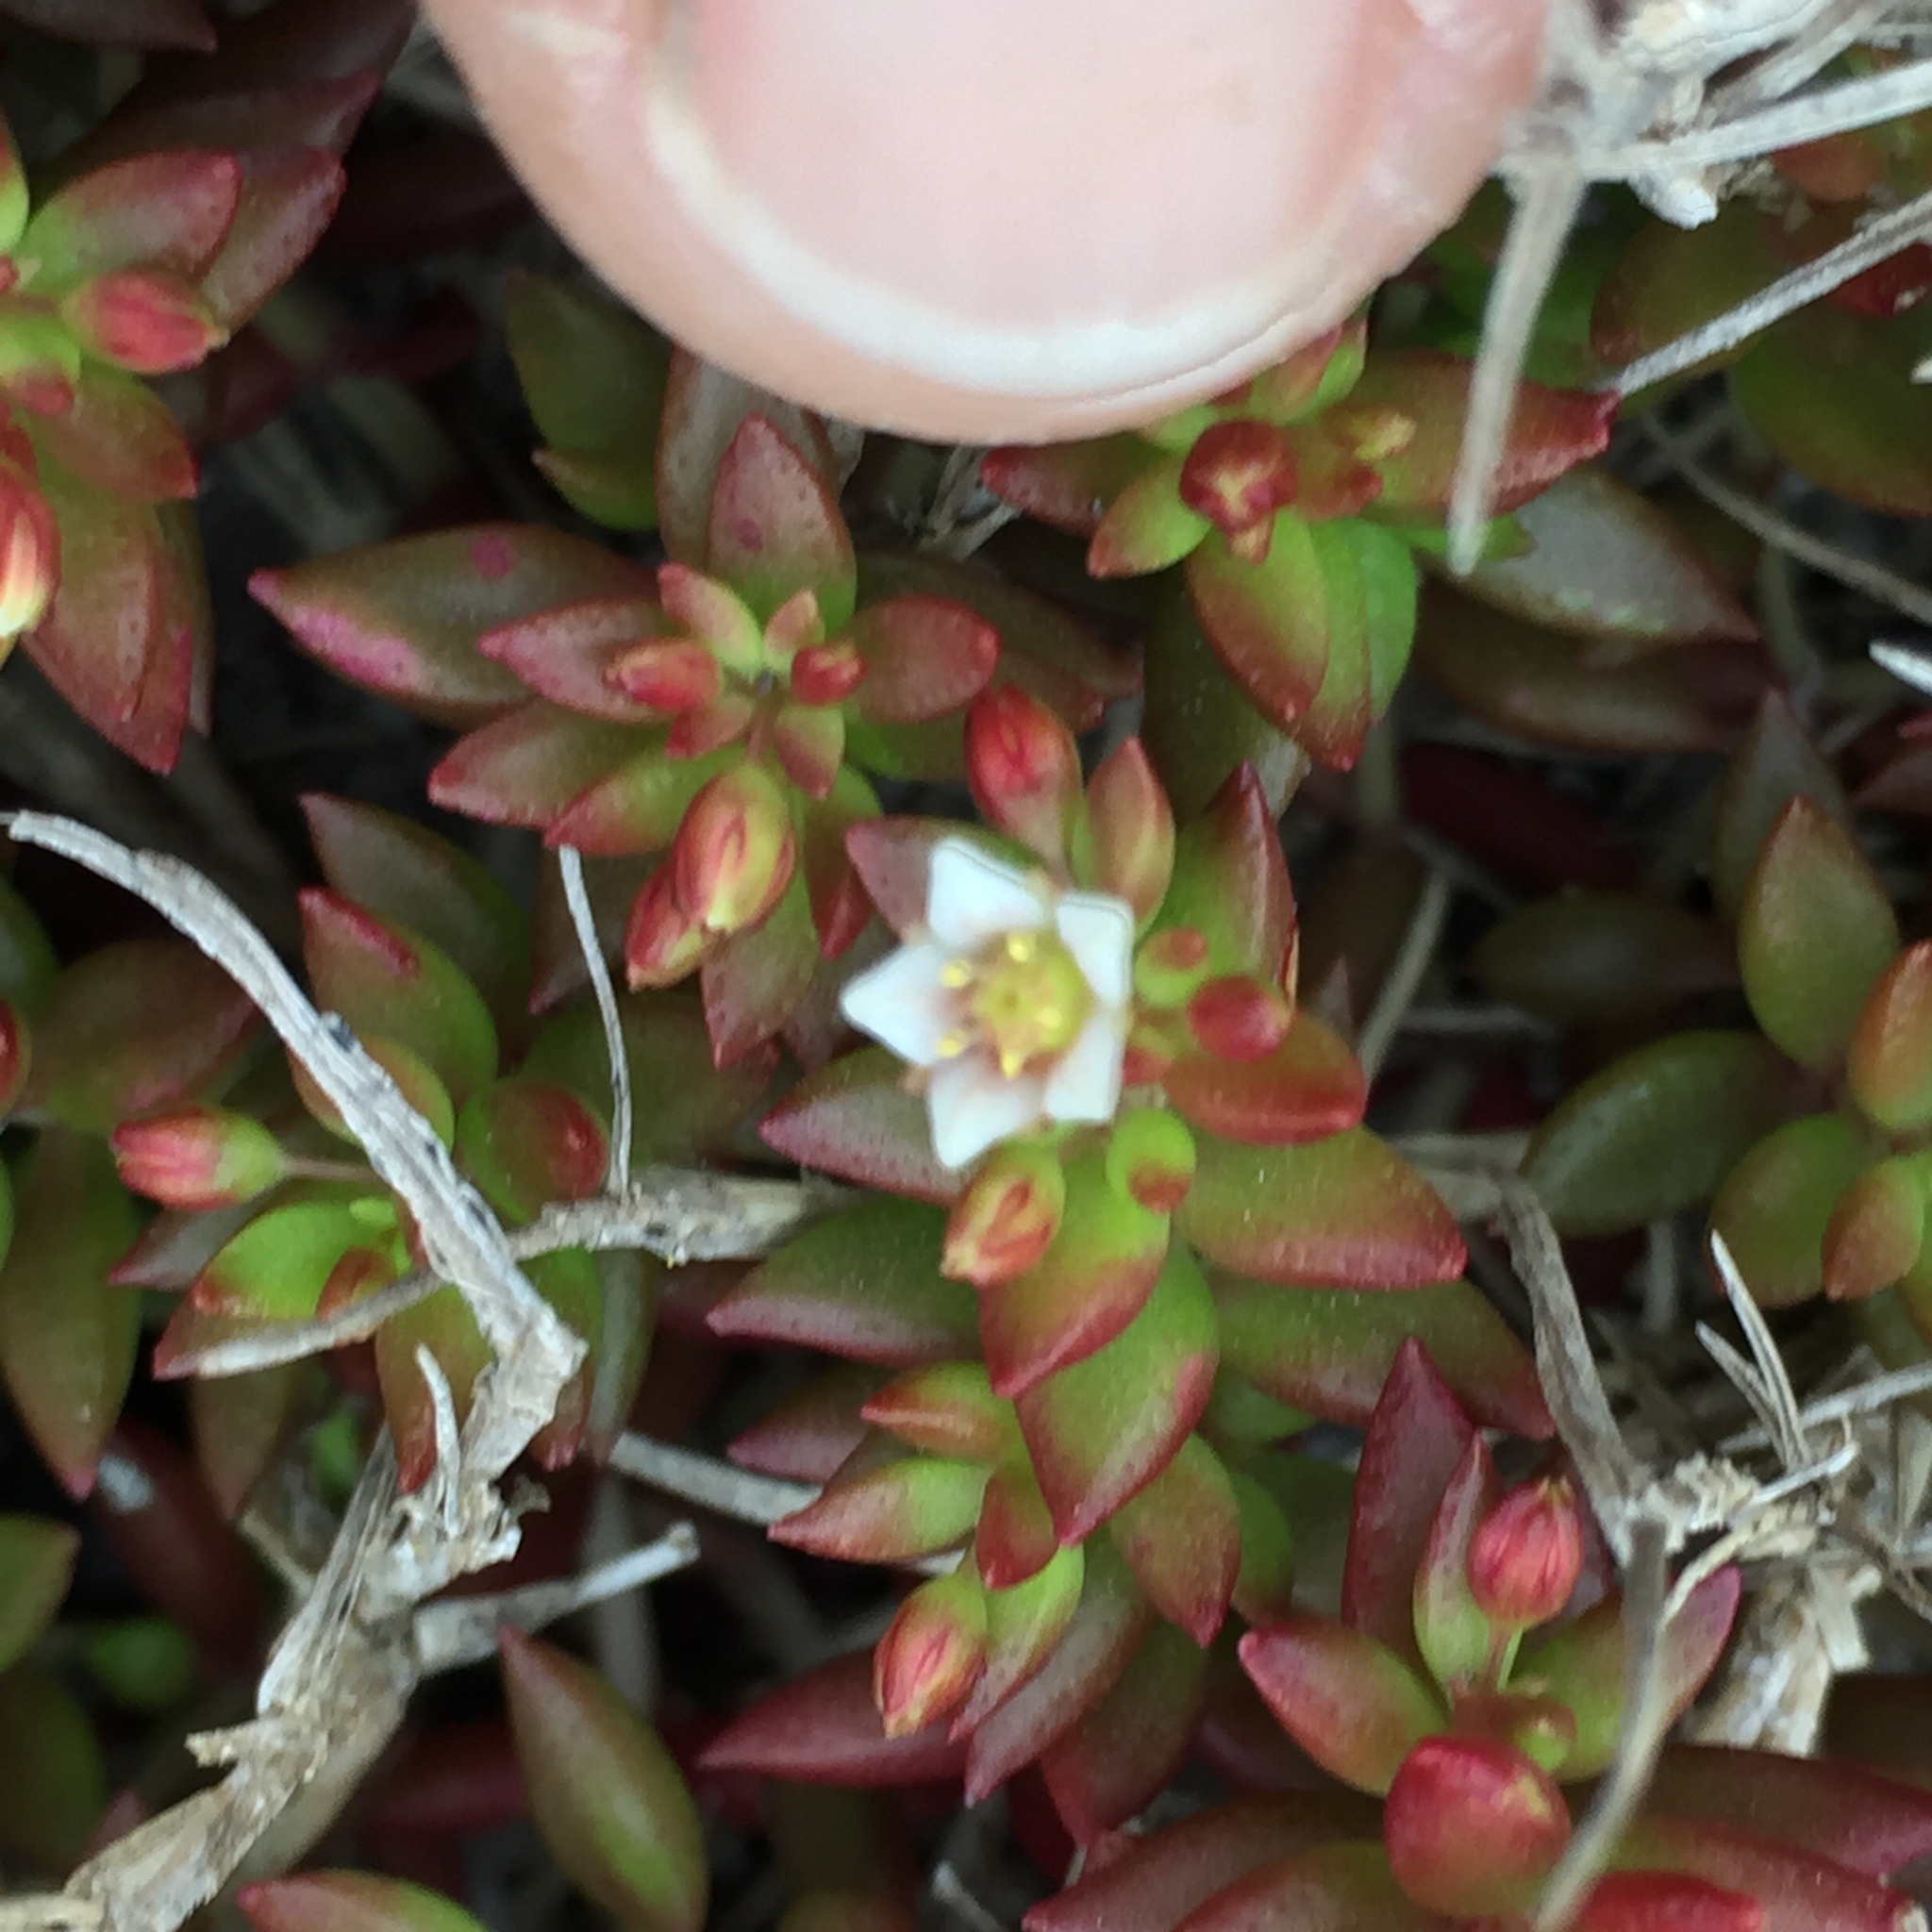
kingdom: Plantae
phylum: Tracheophyta
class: Magnoliopsida
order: Saxifragales
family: Crassulaceae
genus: Crassula
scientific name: Crassula expansa
